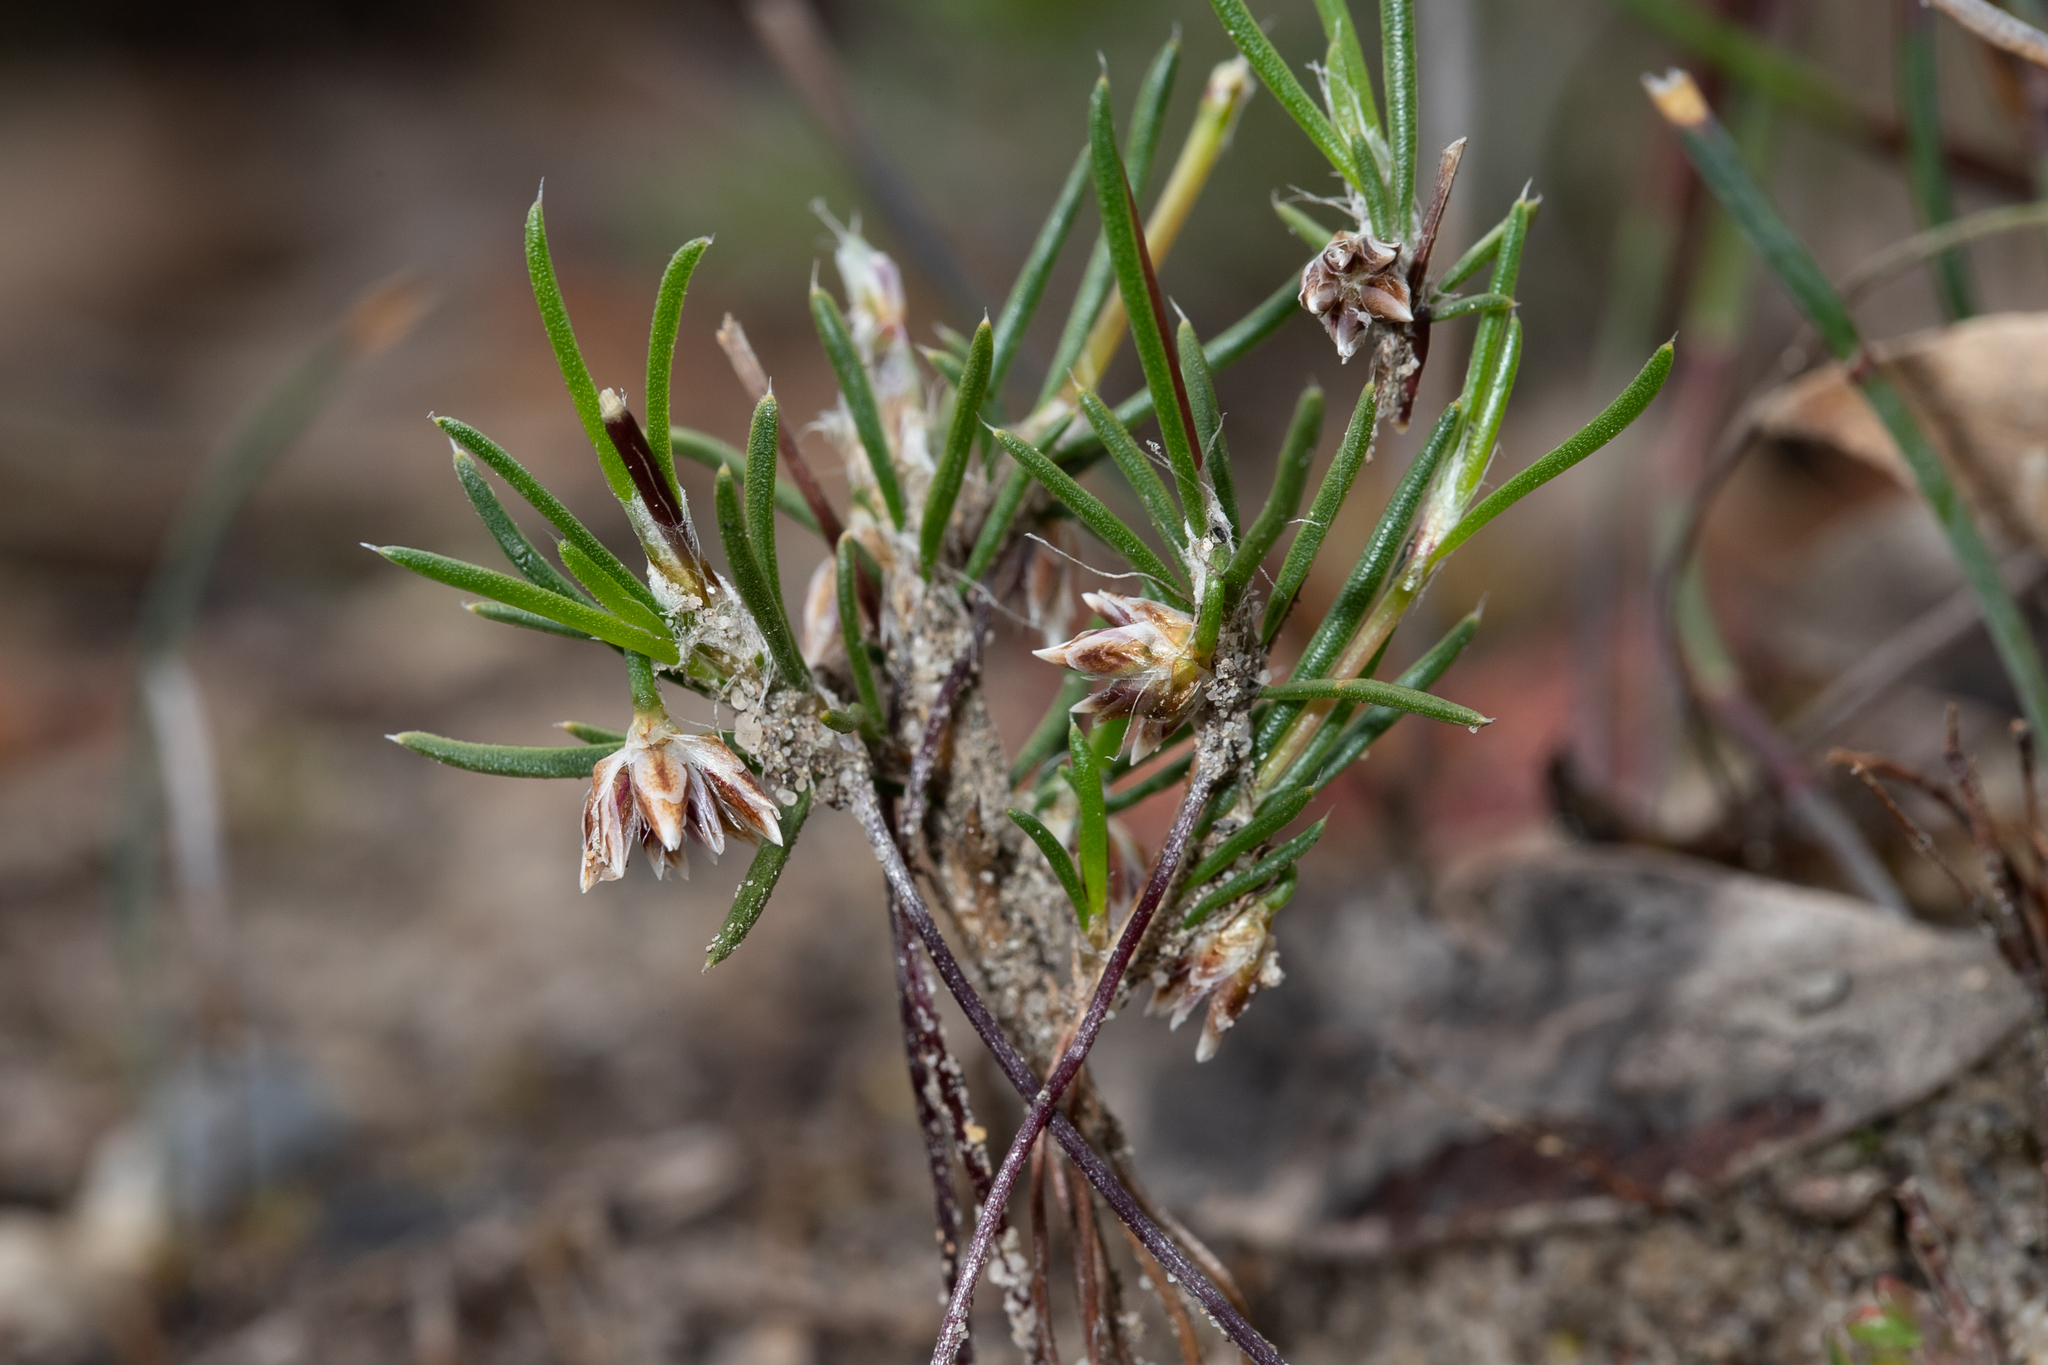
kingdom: Plantae
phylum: Tracheophyta
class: Liliopsida
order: Asparagales
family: Asparagaceae
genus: Laxmannia
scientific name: Laxmannia orientalis
